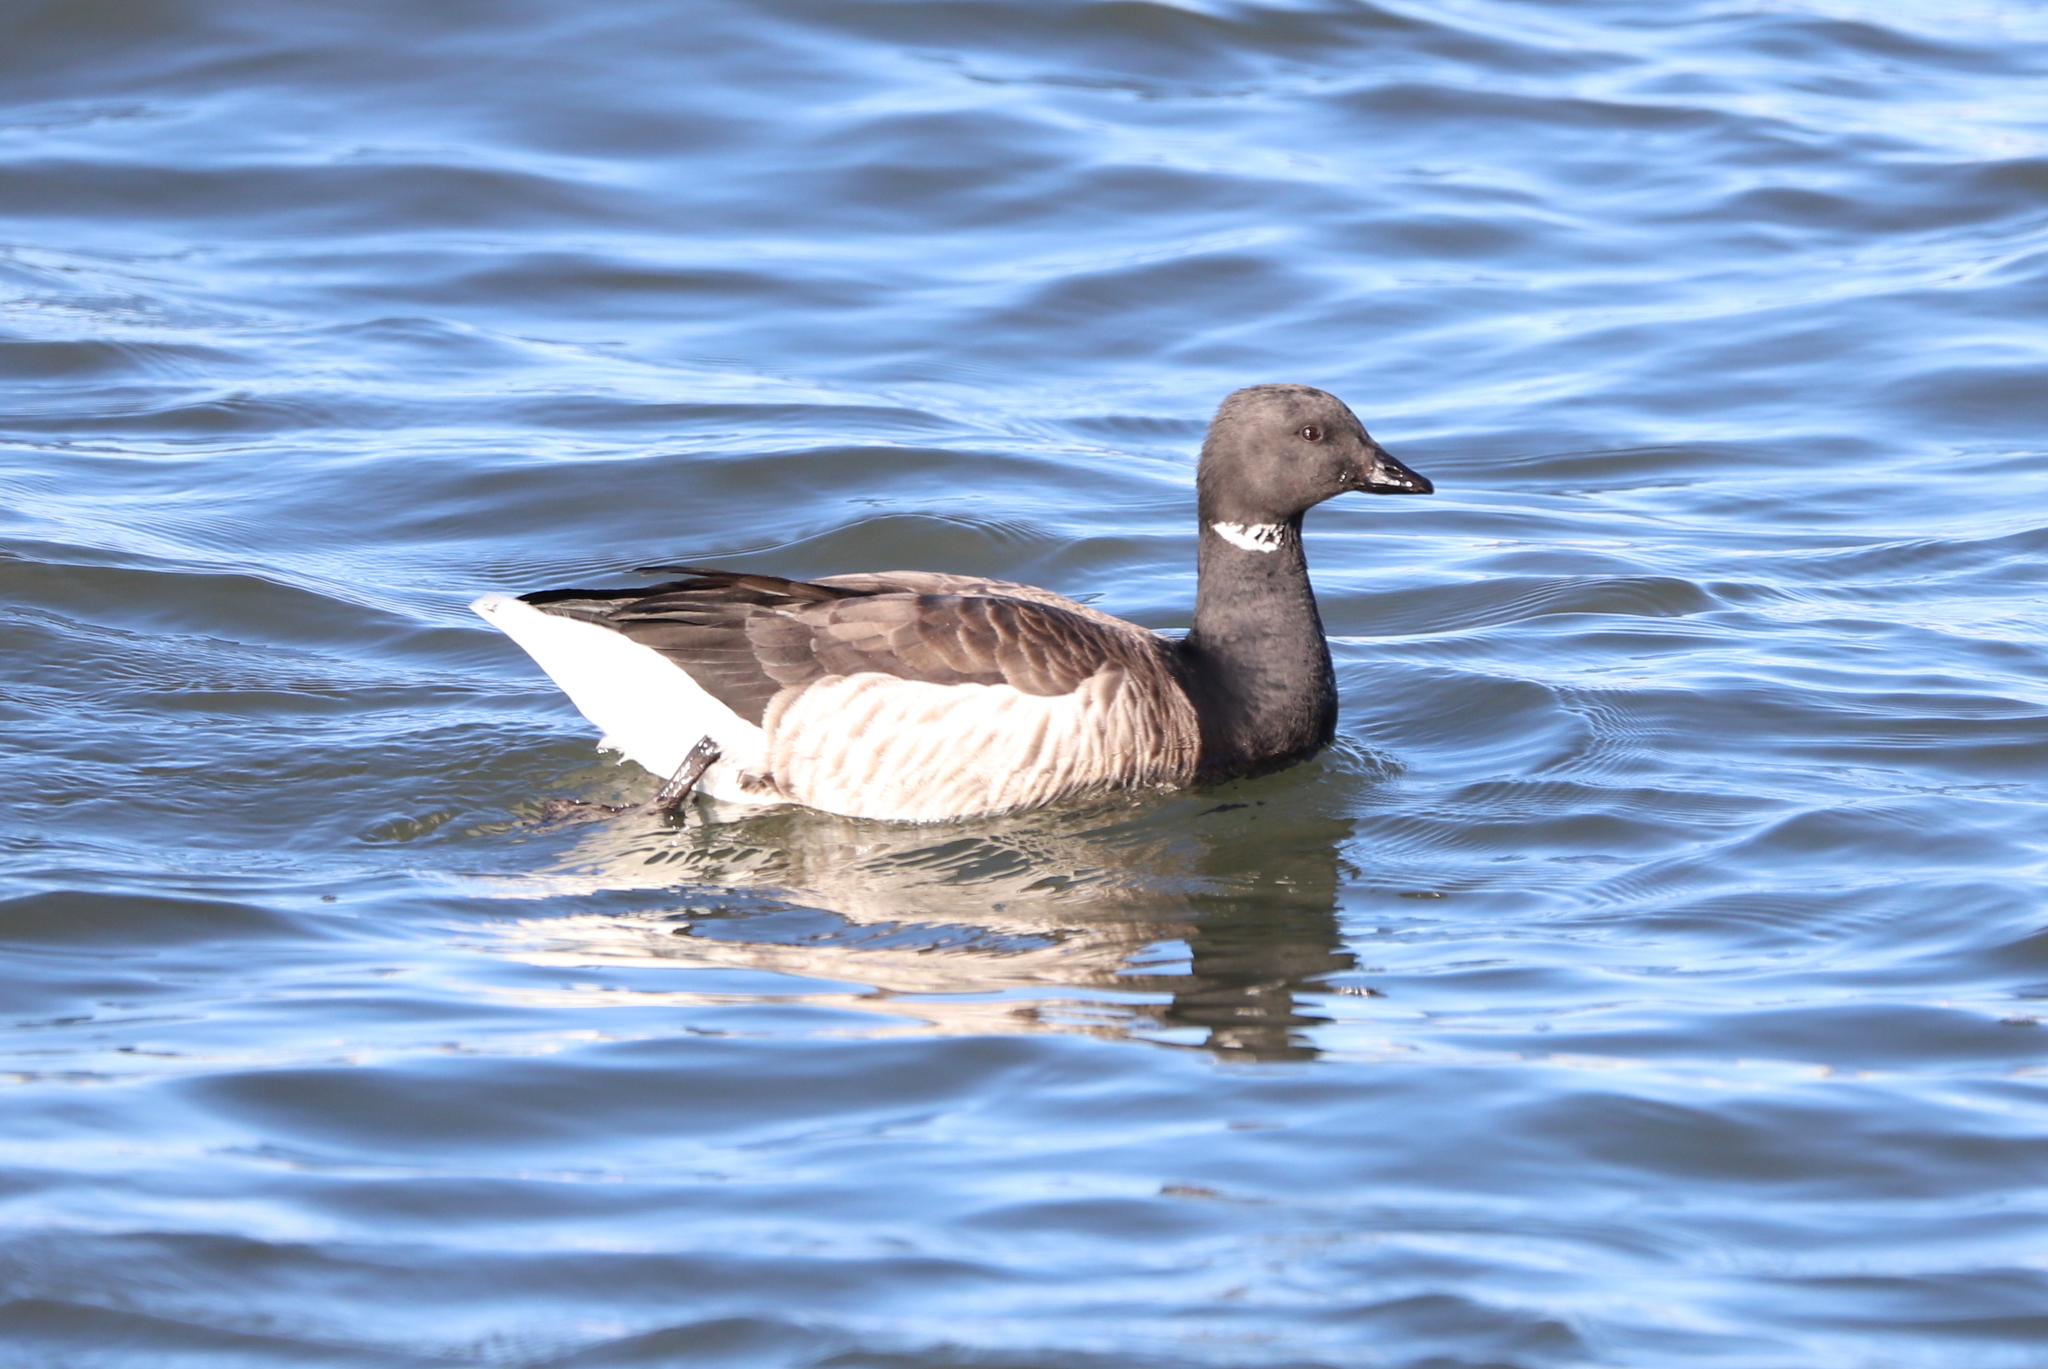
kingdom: Animalia
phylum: Chordata
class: Aves
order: Anseriformes
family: Anatidae
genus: Branta
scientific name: Branta bernicla
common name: Brant goose
